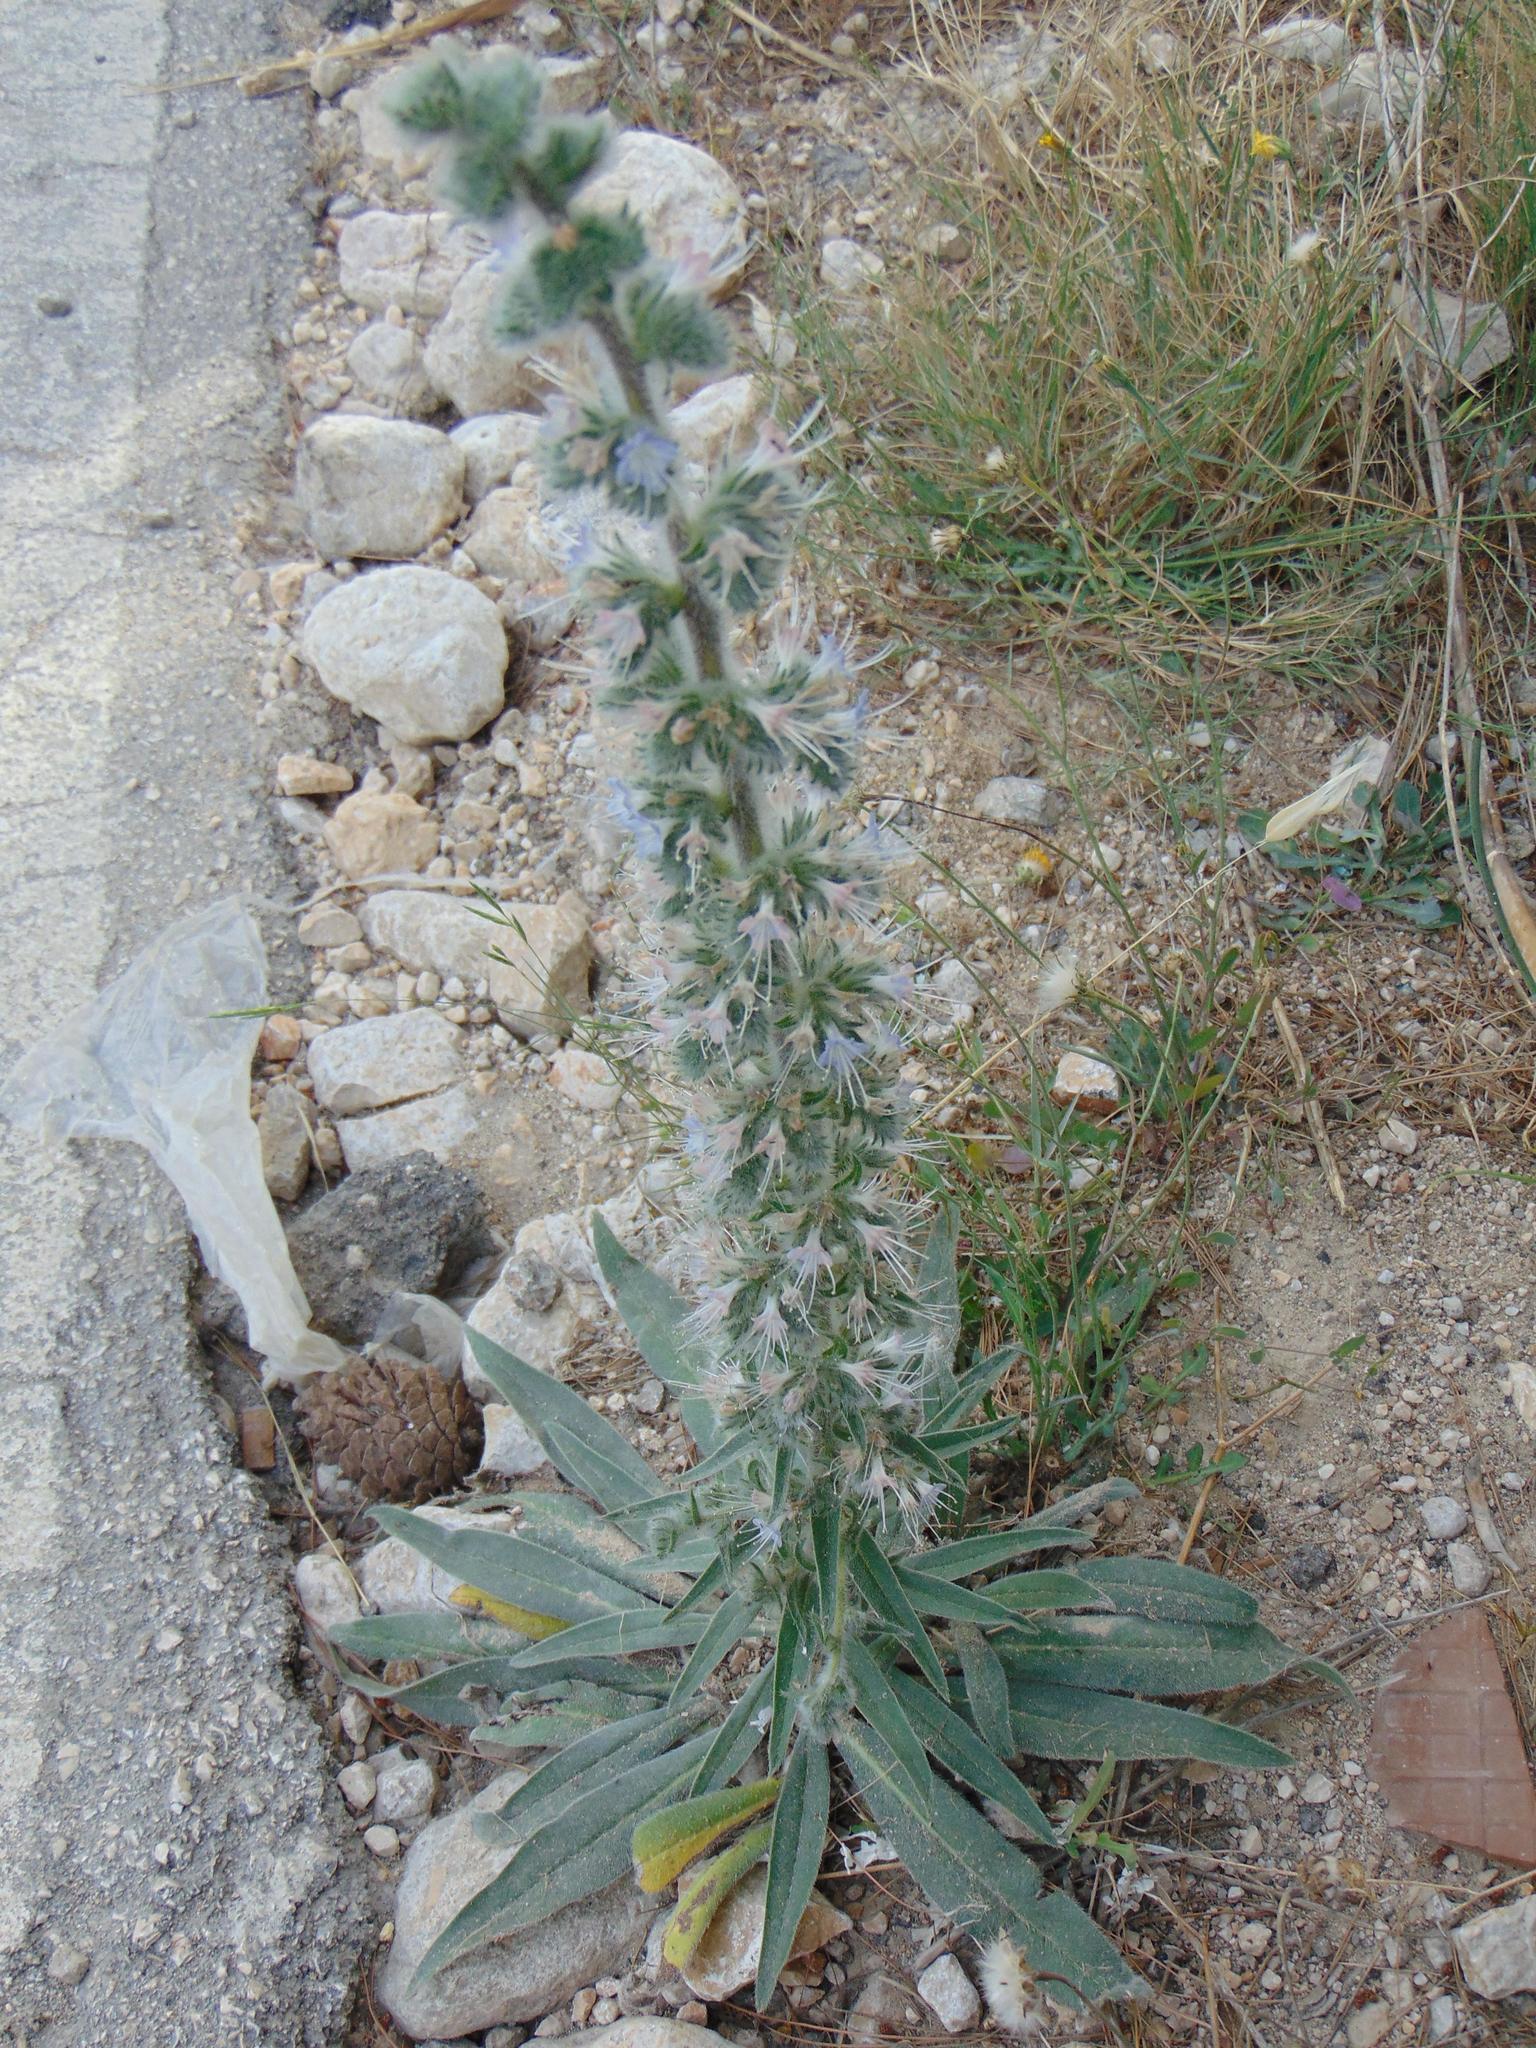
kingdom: Plantae
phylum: Tracheophyta
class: Magnoliopsida
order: Boraginales
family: Boraginaceae
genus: Echium
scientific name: Echium italicum
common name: Italian viper's bugloss
